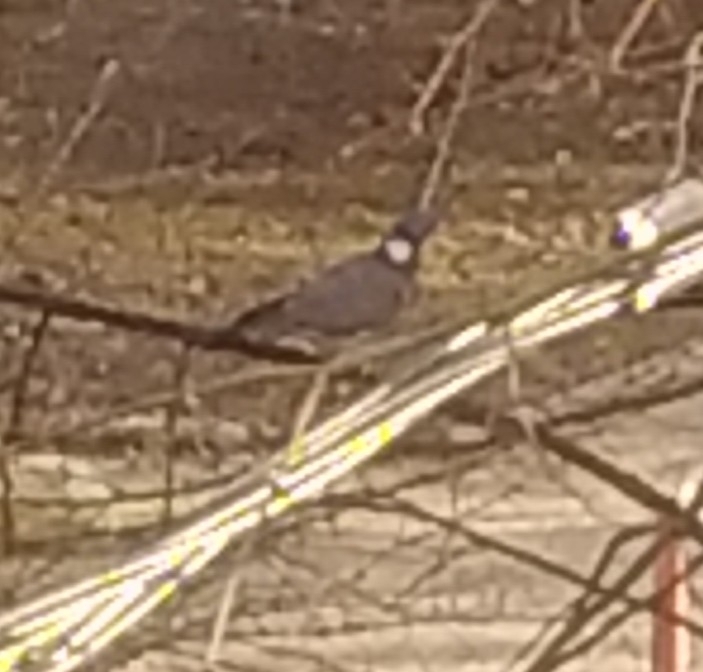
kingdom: Animalia
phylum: Chordata
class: Aves
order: Columbiformes
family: Columbidae
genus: Columba
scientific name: Columba palumbus
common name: Common wood pigeon
